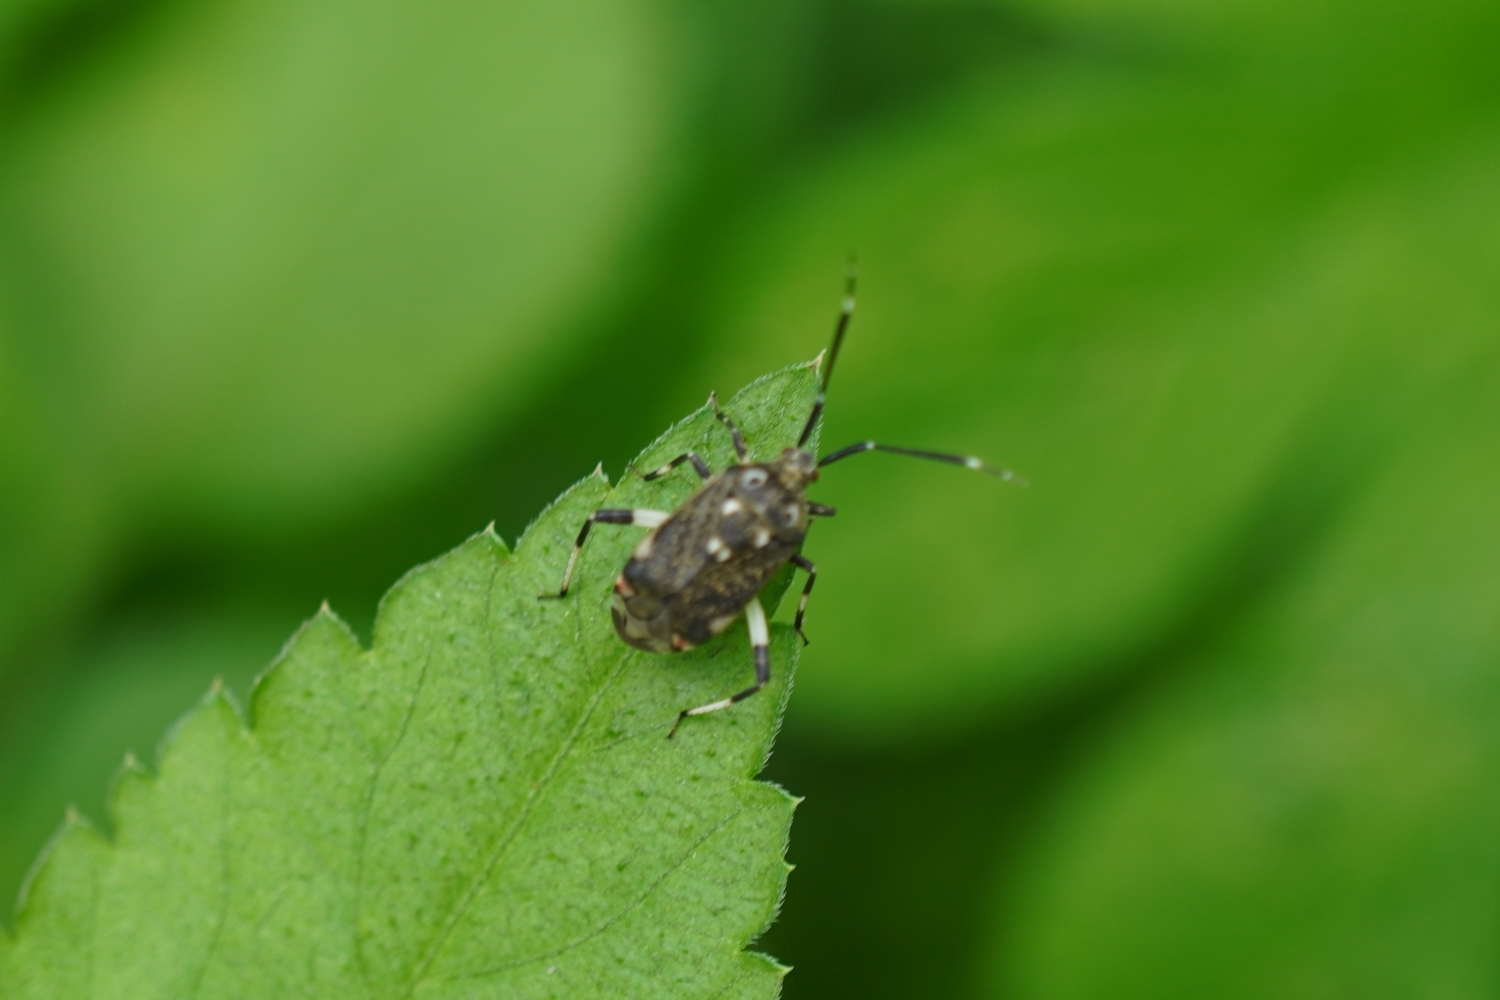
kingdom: Animalia
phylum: Arthropoda
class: Insecta
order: Hemiptera
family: Miridae
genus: Eurystylus
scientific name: Eurystylus coelestialium
